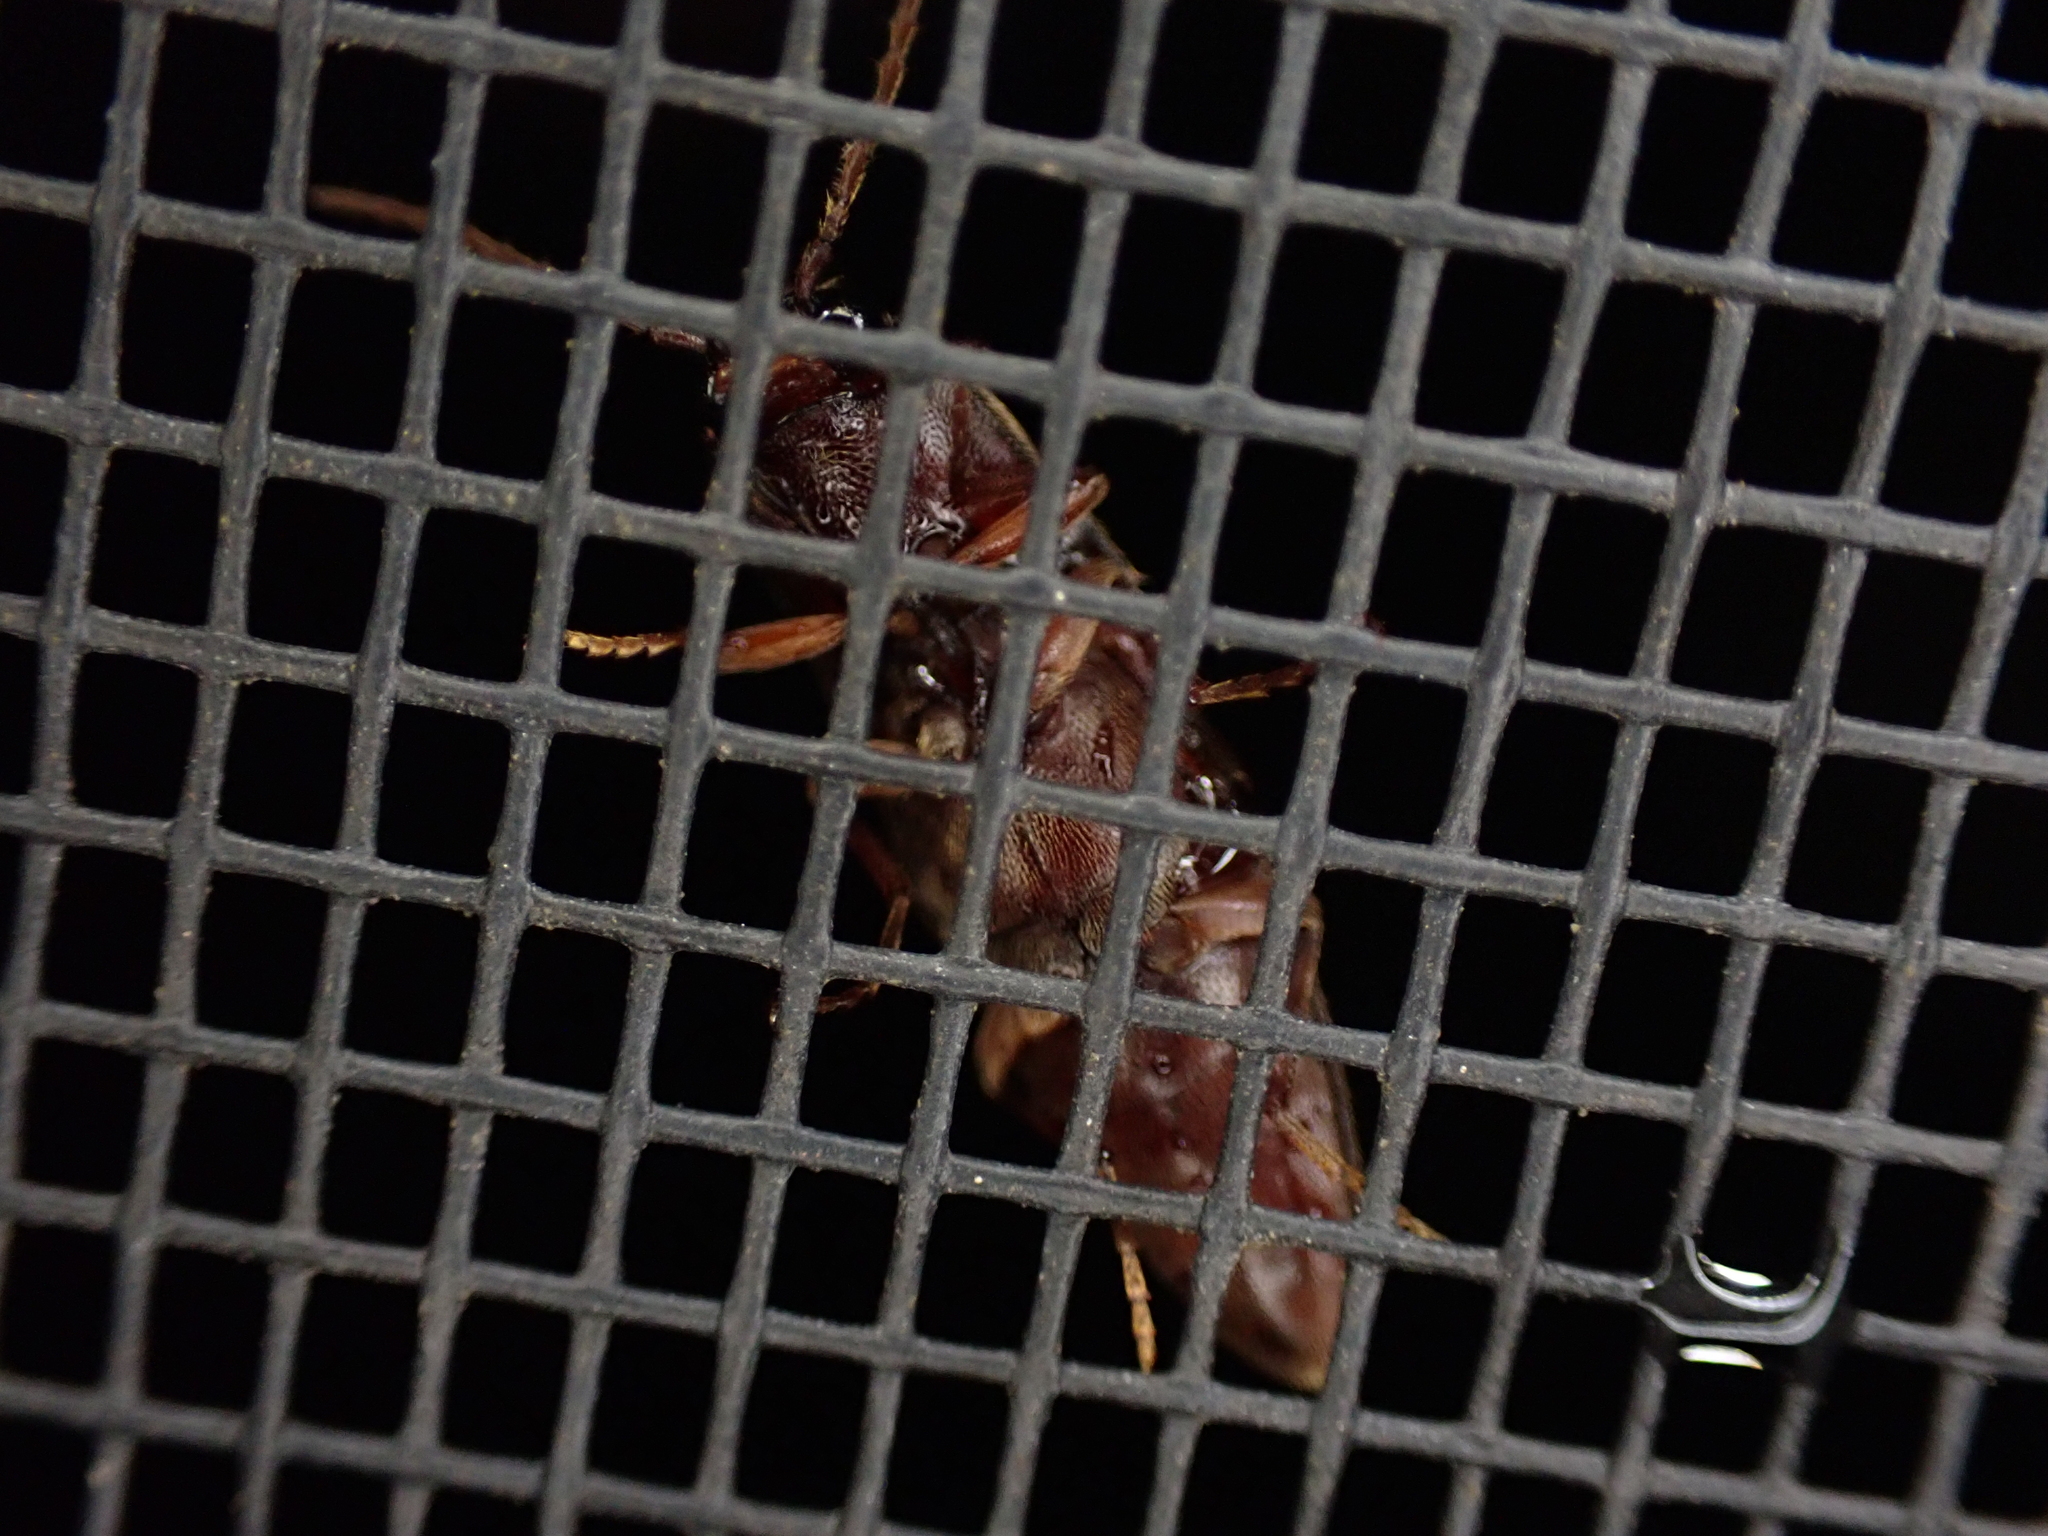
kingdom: Animalia
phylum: Arthropoda
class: Insecta
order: Coleoptera
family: Elateridae
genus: Diplostethus
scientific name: Diplostethus
